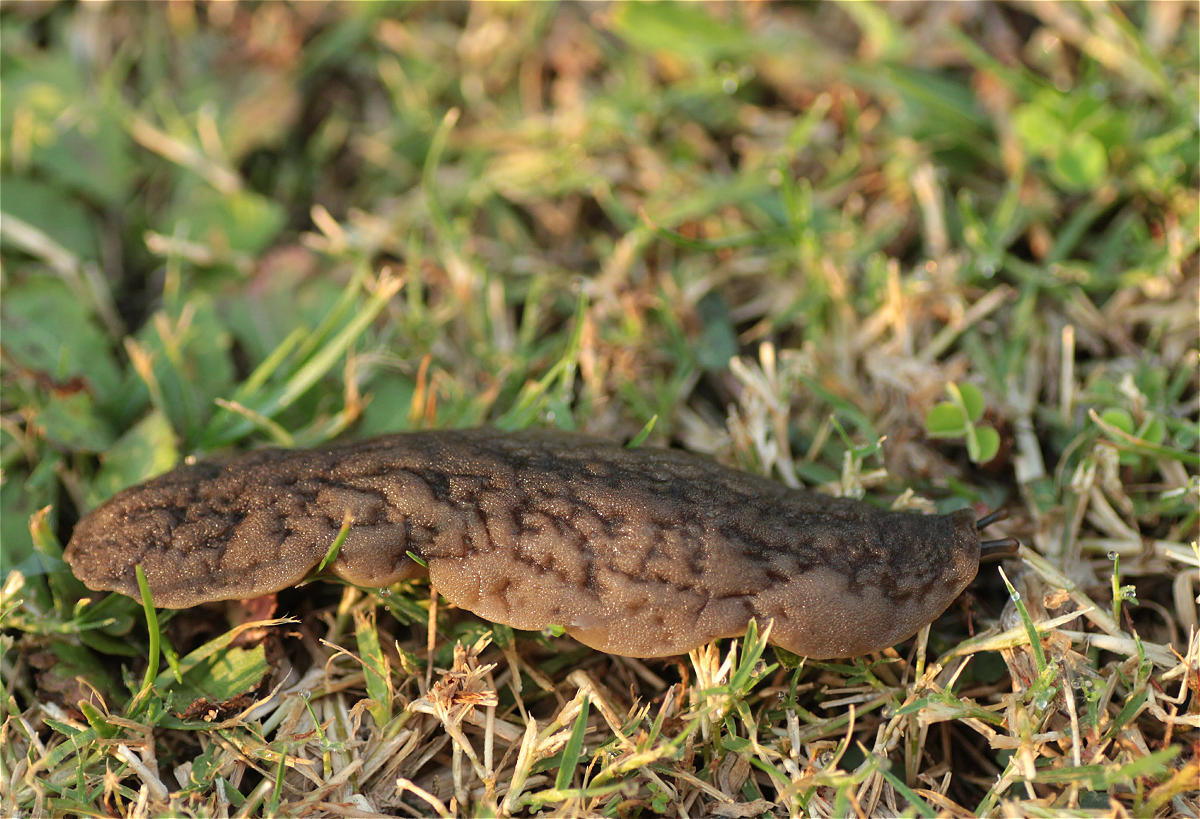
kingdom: Animalia
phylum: Mollusca
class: Gastropoda
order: Systellommatophora
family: Veronicellidae
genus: Laevicaulis
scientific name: Laevicaulis stuhlmanni
